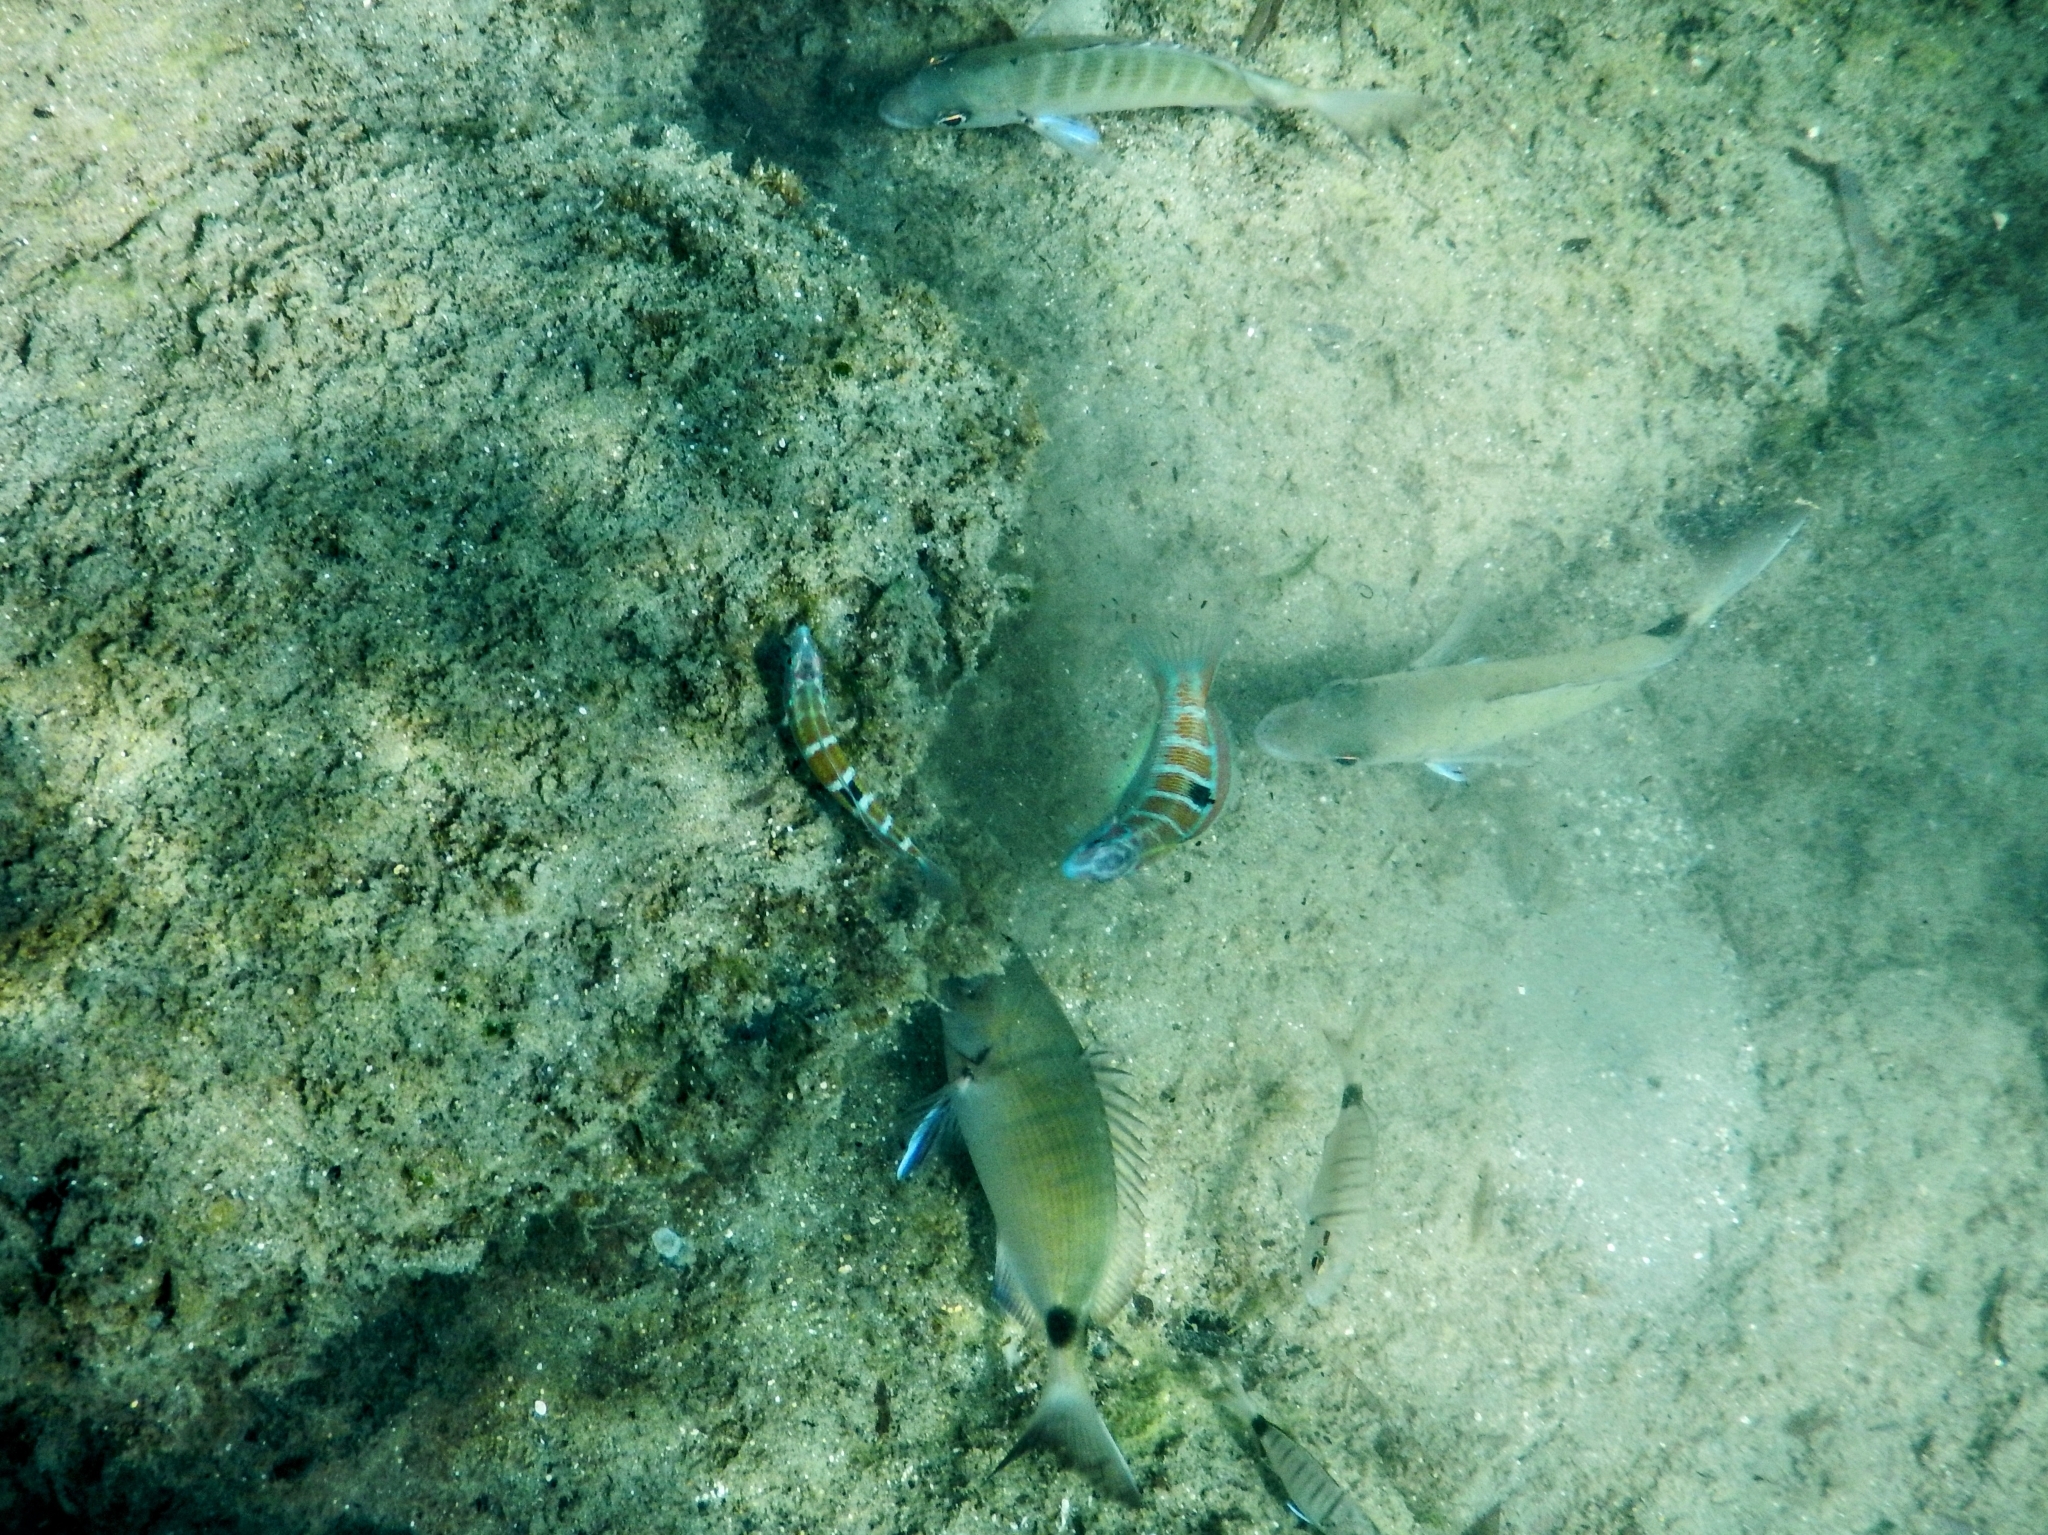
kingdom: Animalia
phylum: Chordata
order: Perciformes
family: Labridae
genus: Thalassoma
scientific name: Thalassoma pavo
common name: Ornate wrasse
